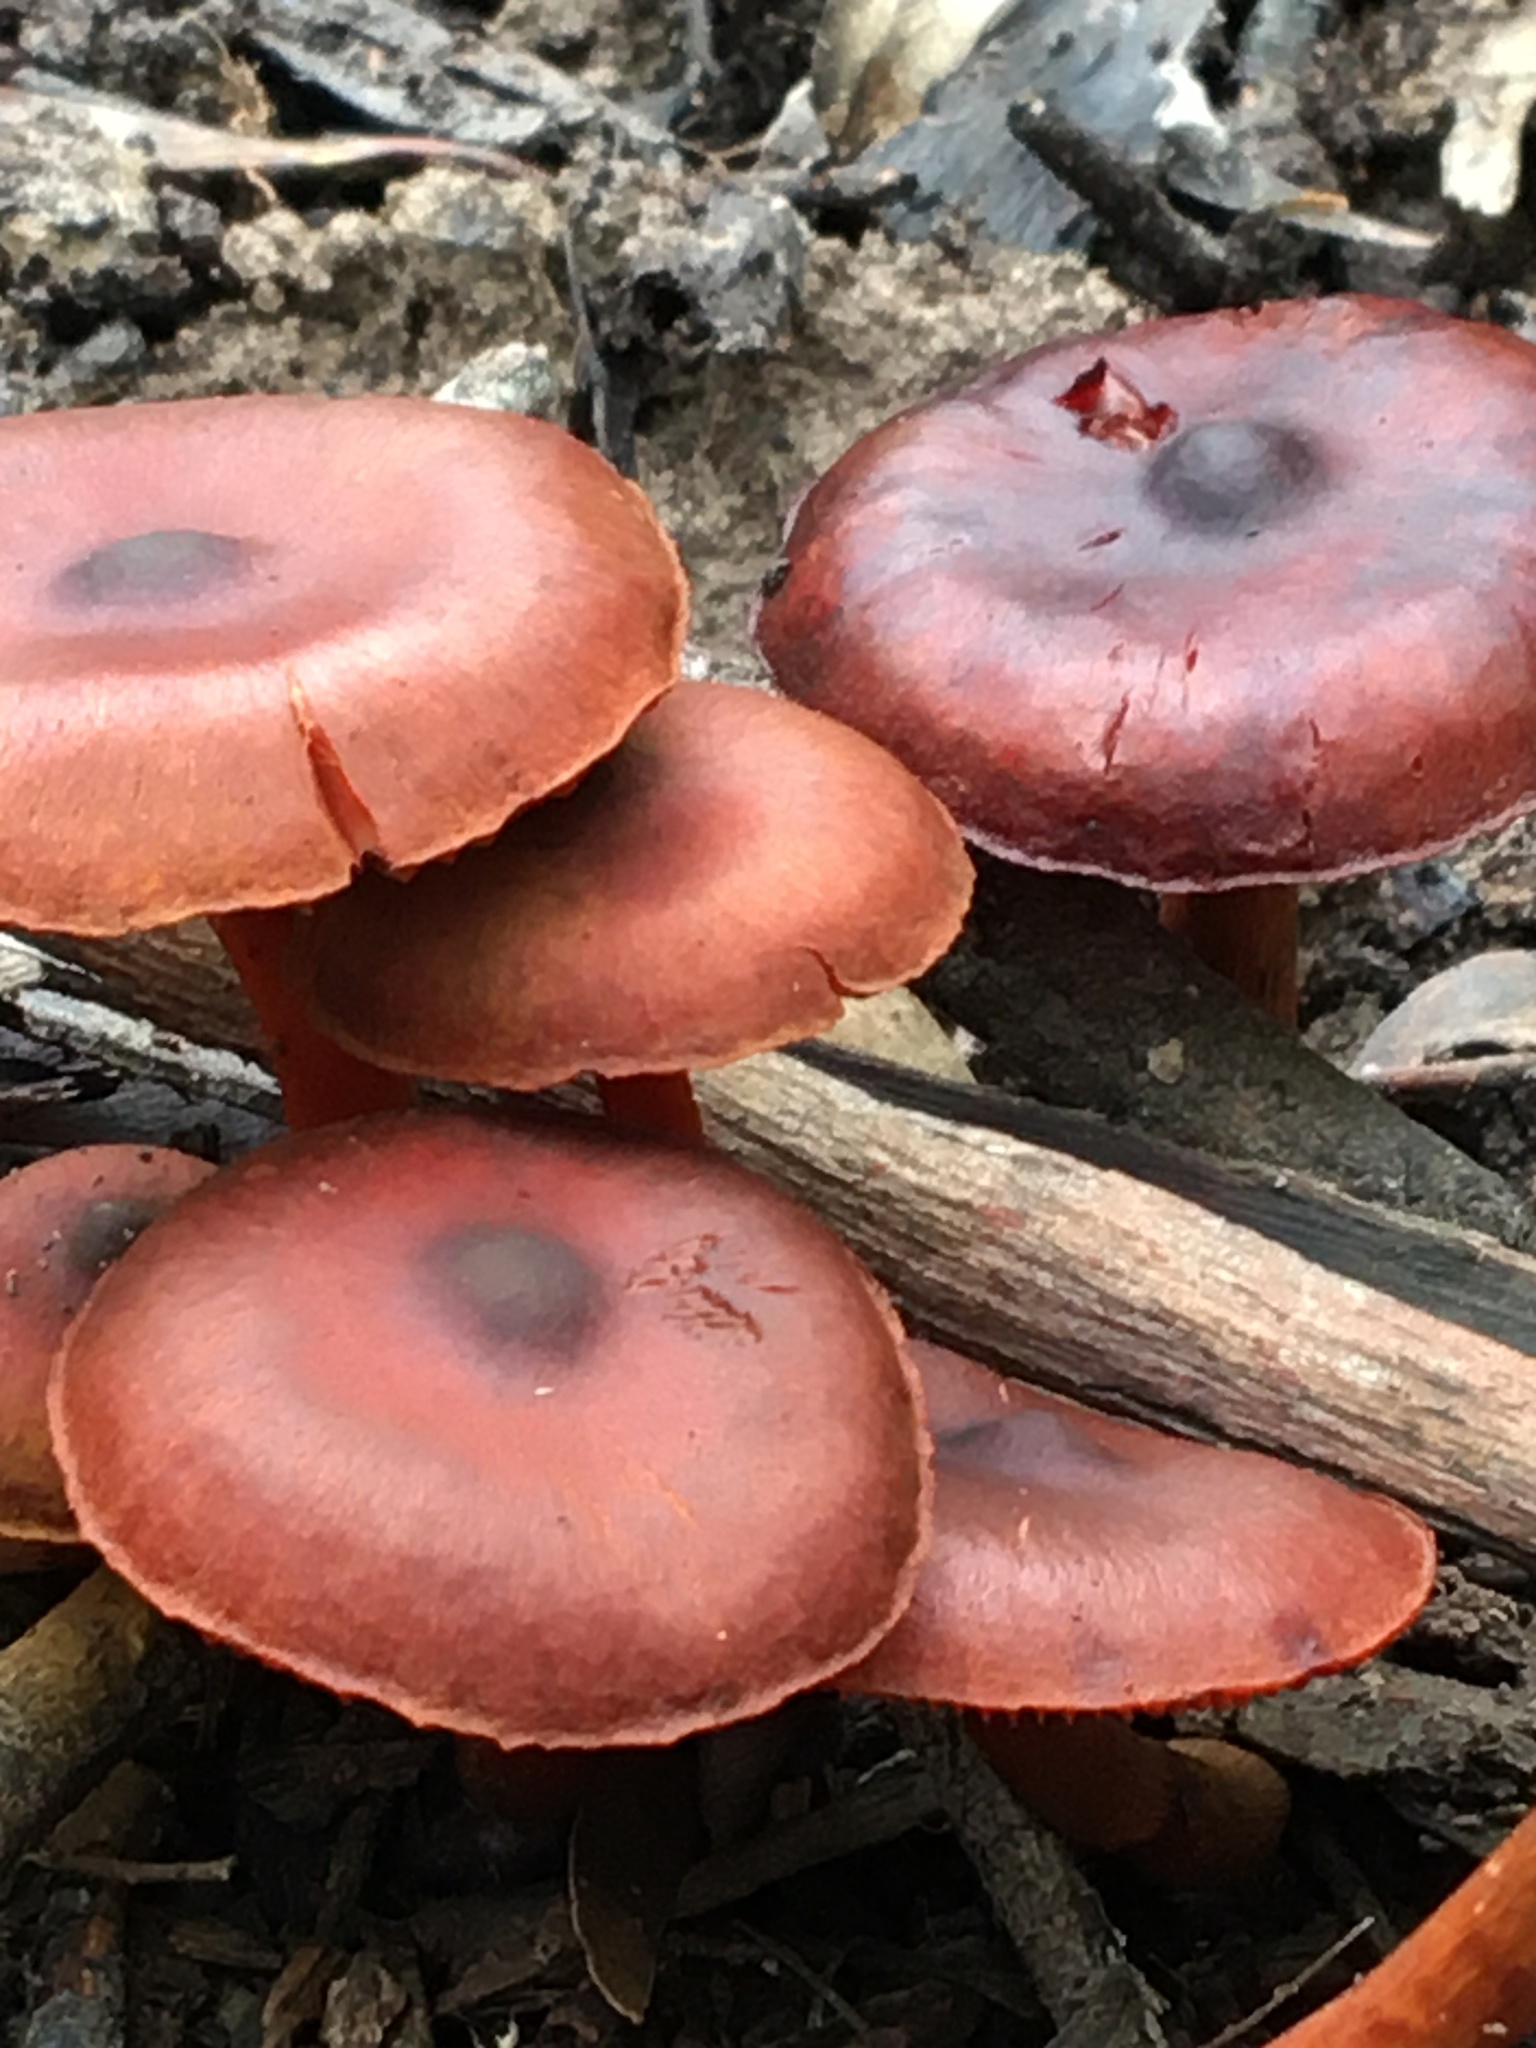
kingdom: Fungi
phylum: Basidiomycota
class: Agaricomycetes
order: Agaricales
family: Cortinariaceae
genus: Cortinarius
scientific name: Cortinarius persplendidus
